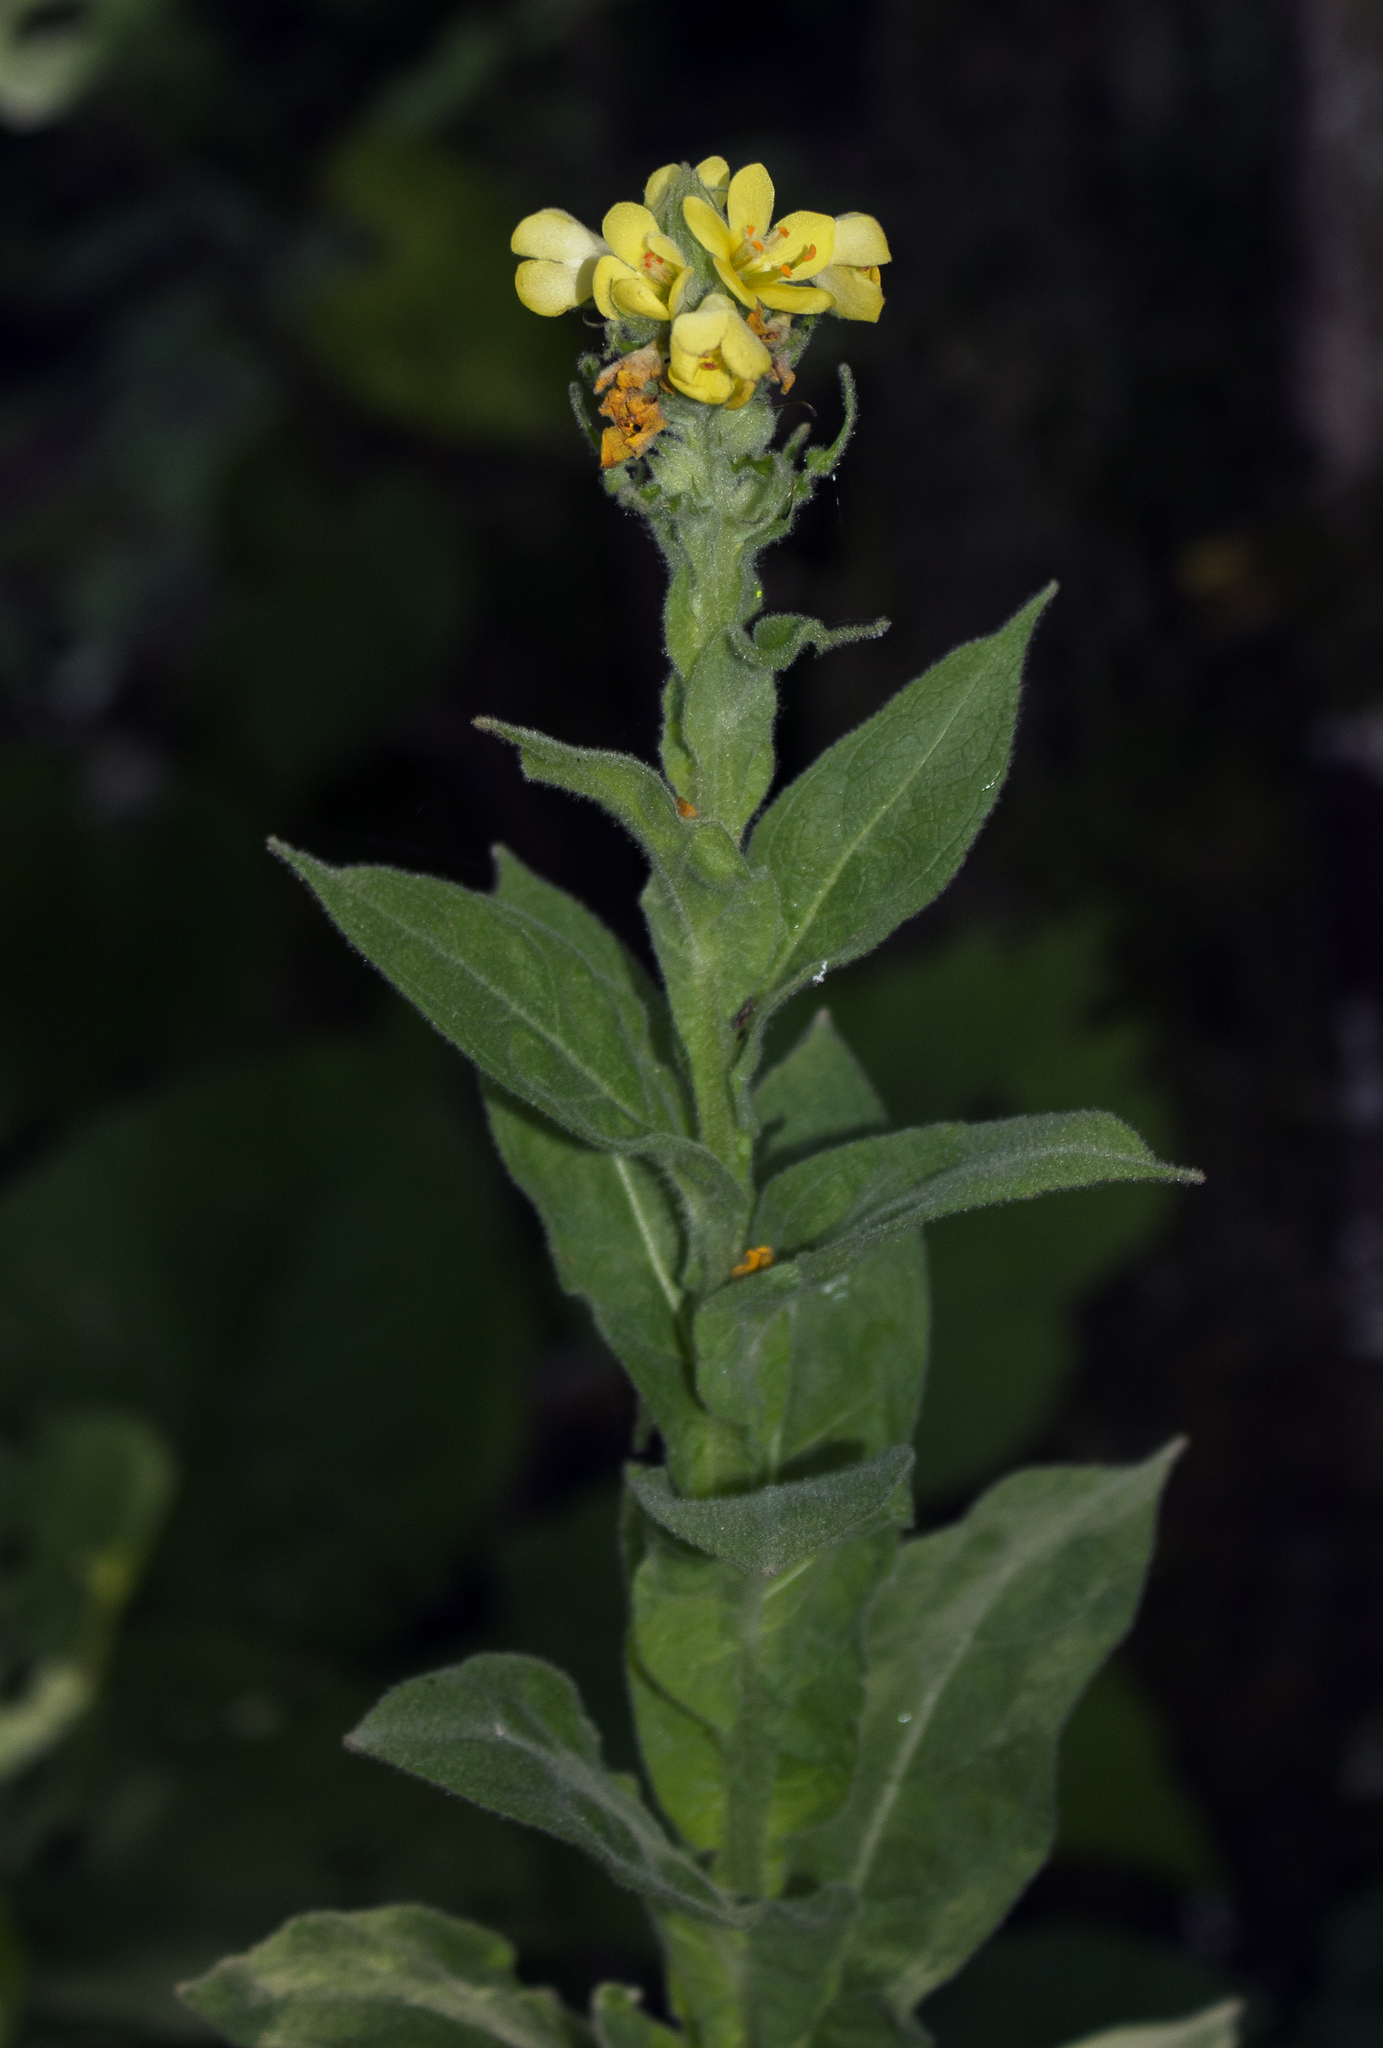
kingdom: Plantae
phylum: Tracheophyta
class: Magnoliopsida
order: Lamiales
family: Scrophulariaceae
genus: Verbascum
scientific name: Verbascum thapsus
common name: Common mullein
